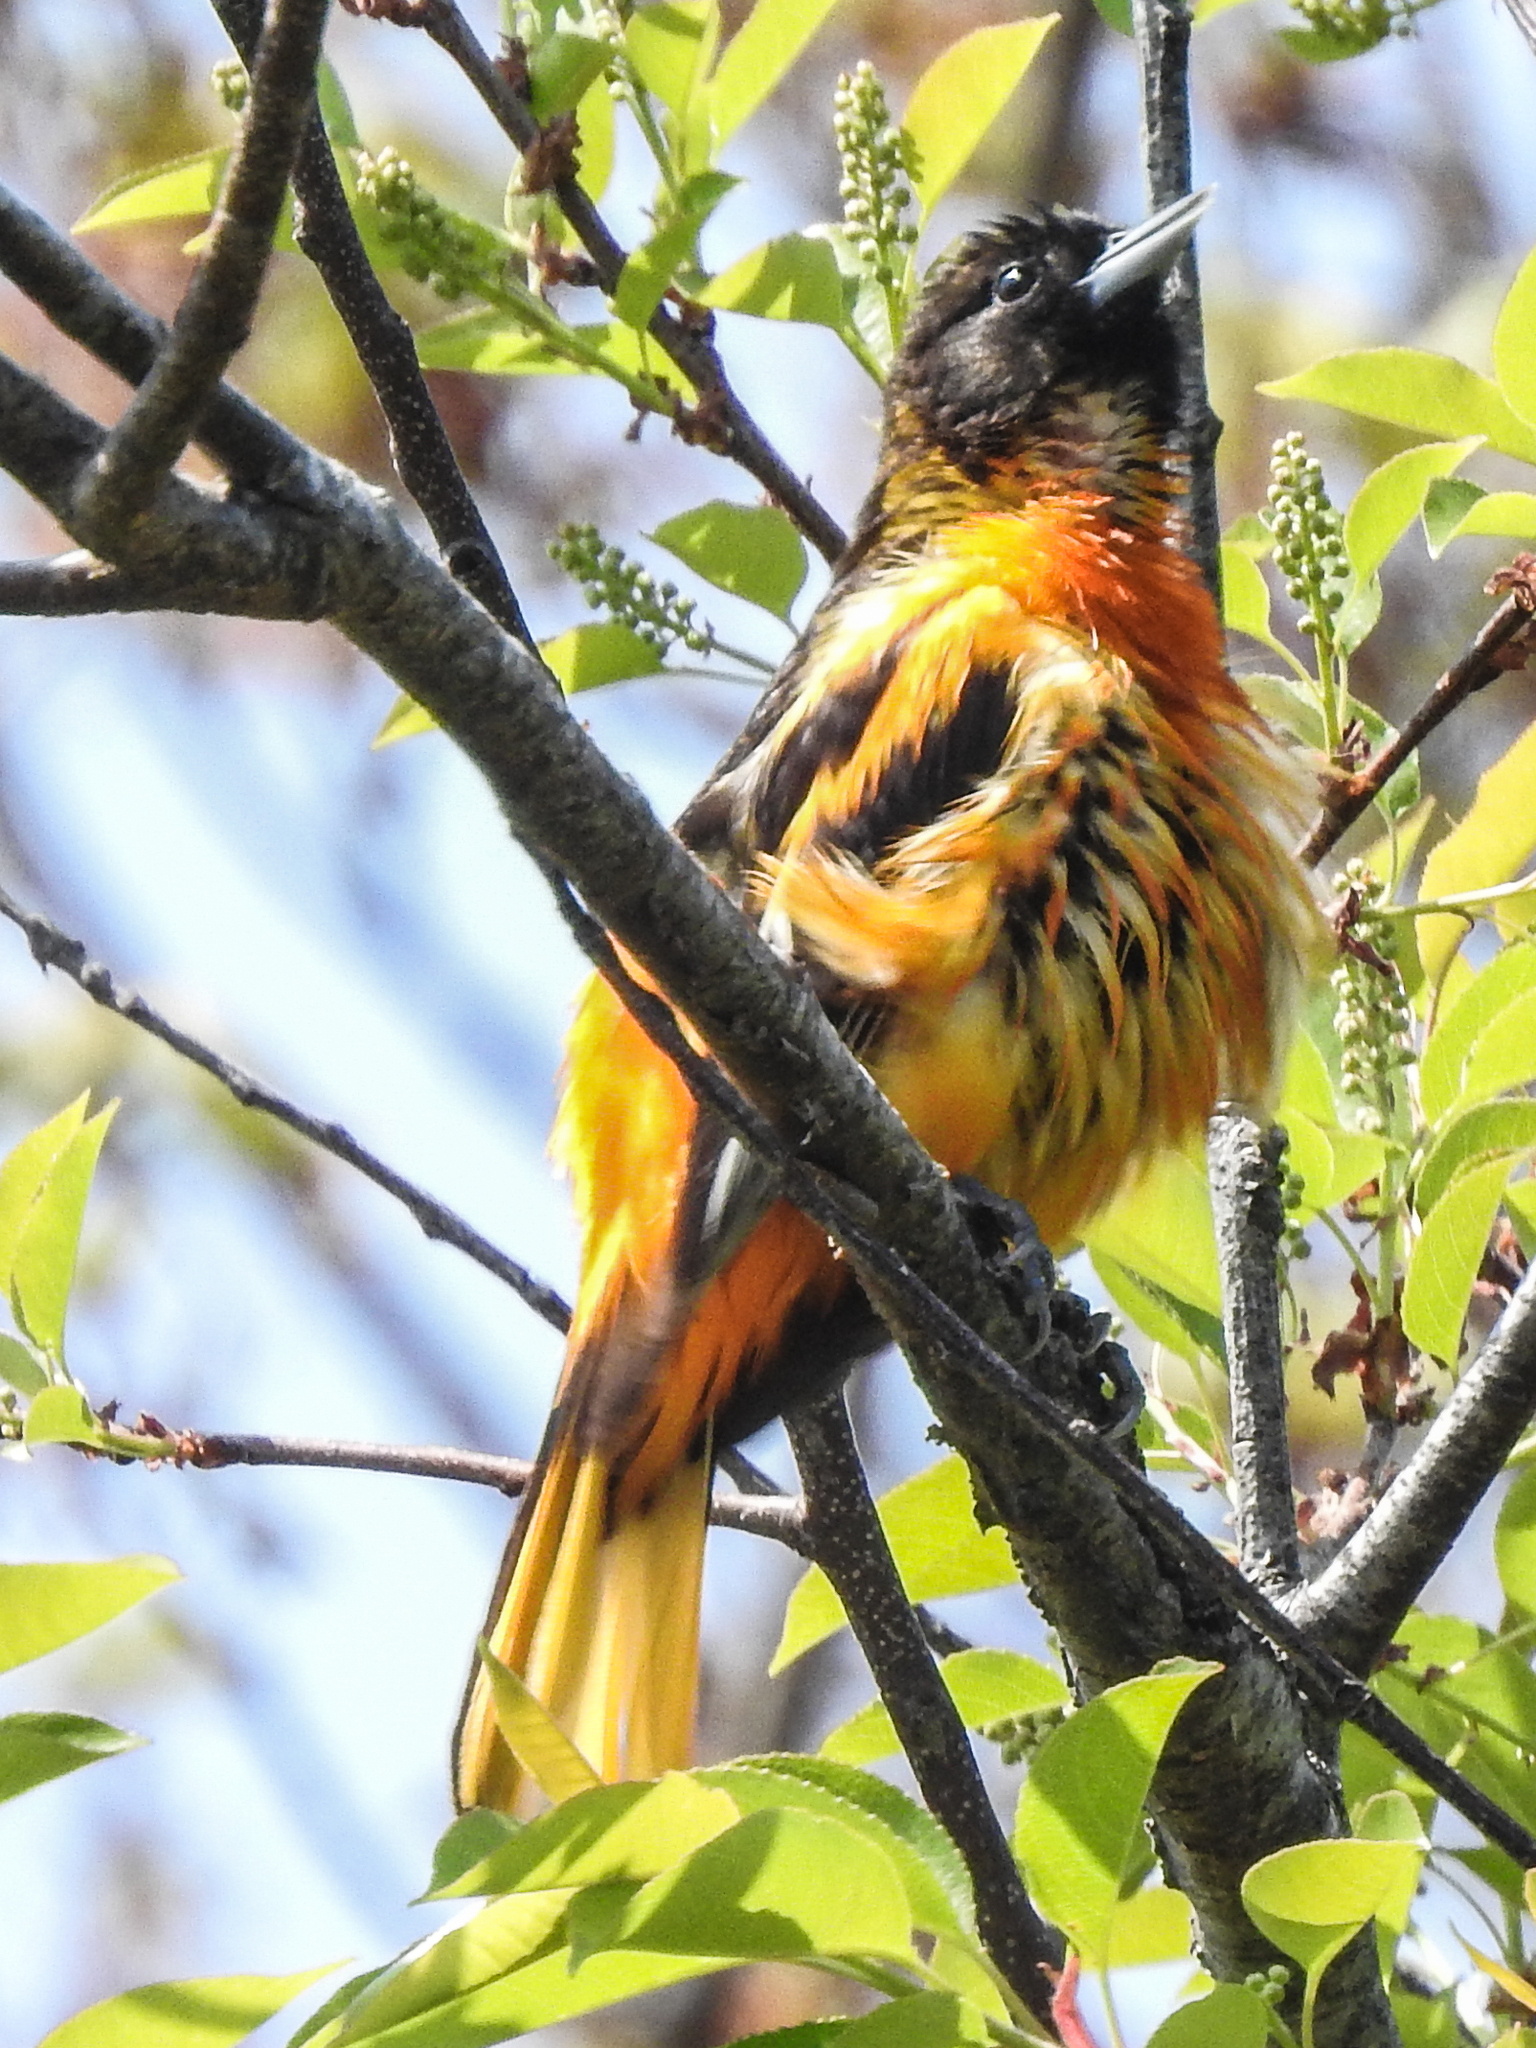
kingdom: Animalia
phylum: Chordata
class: Aves
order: Passeriformes
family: Icteridae
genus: Icterus
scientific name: Icterus galbula
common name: Baltimore oriole
